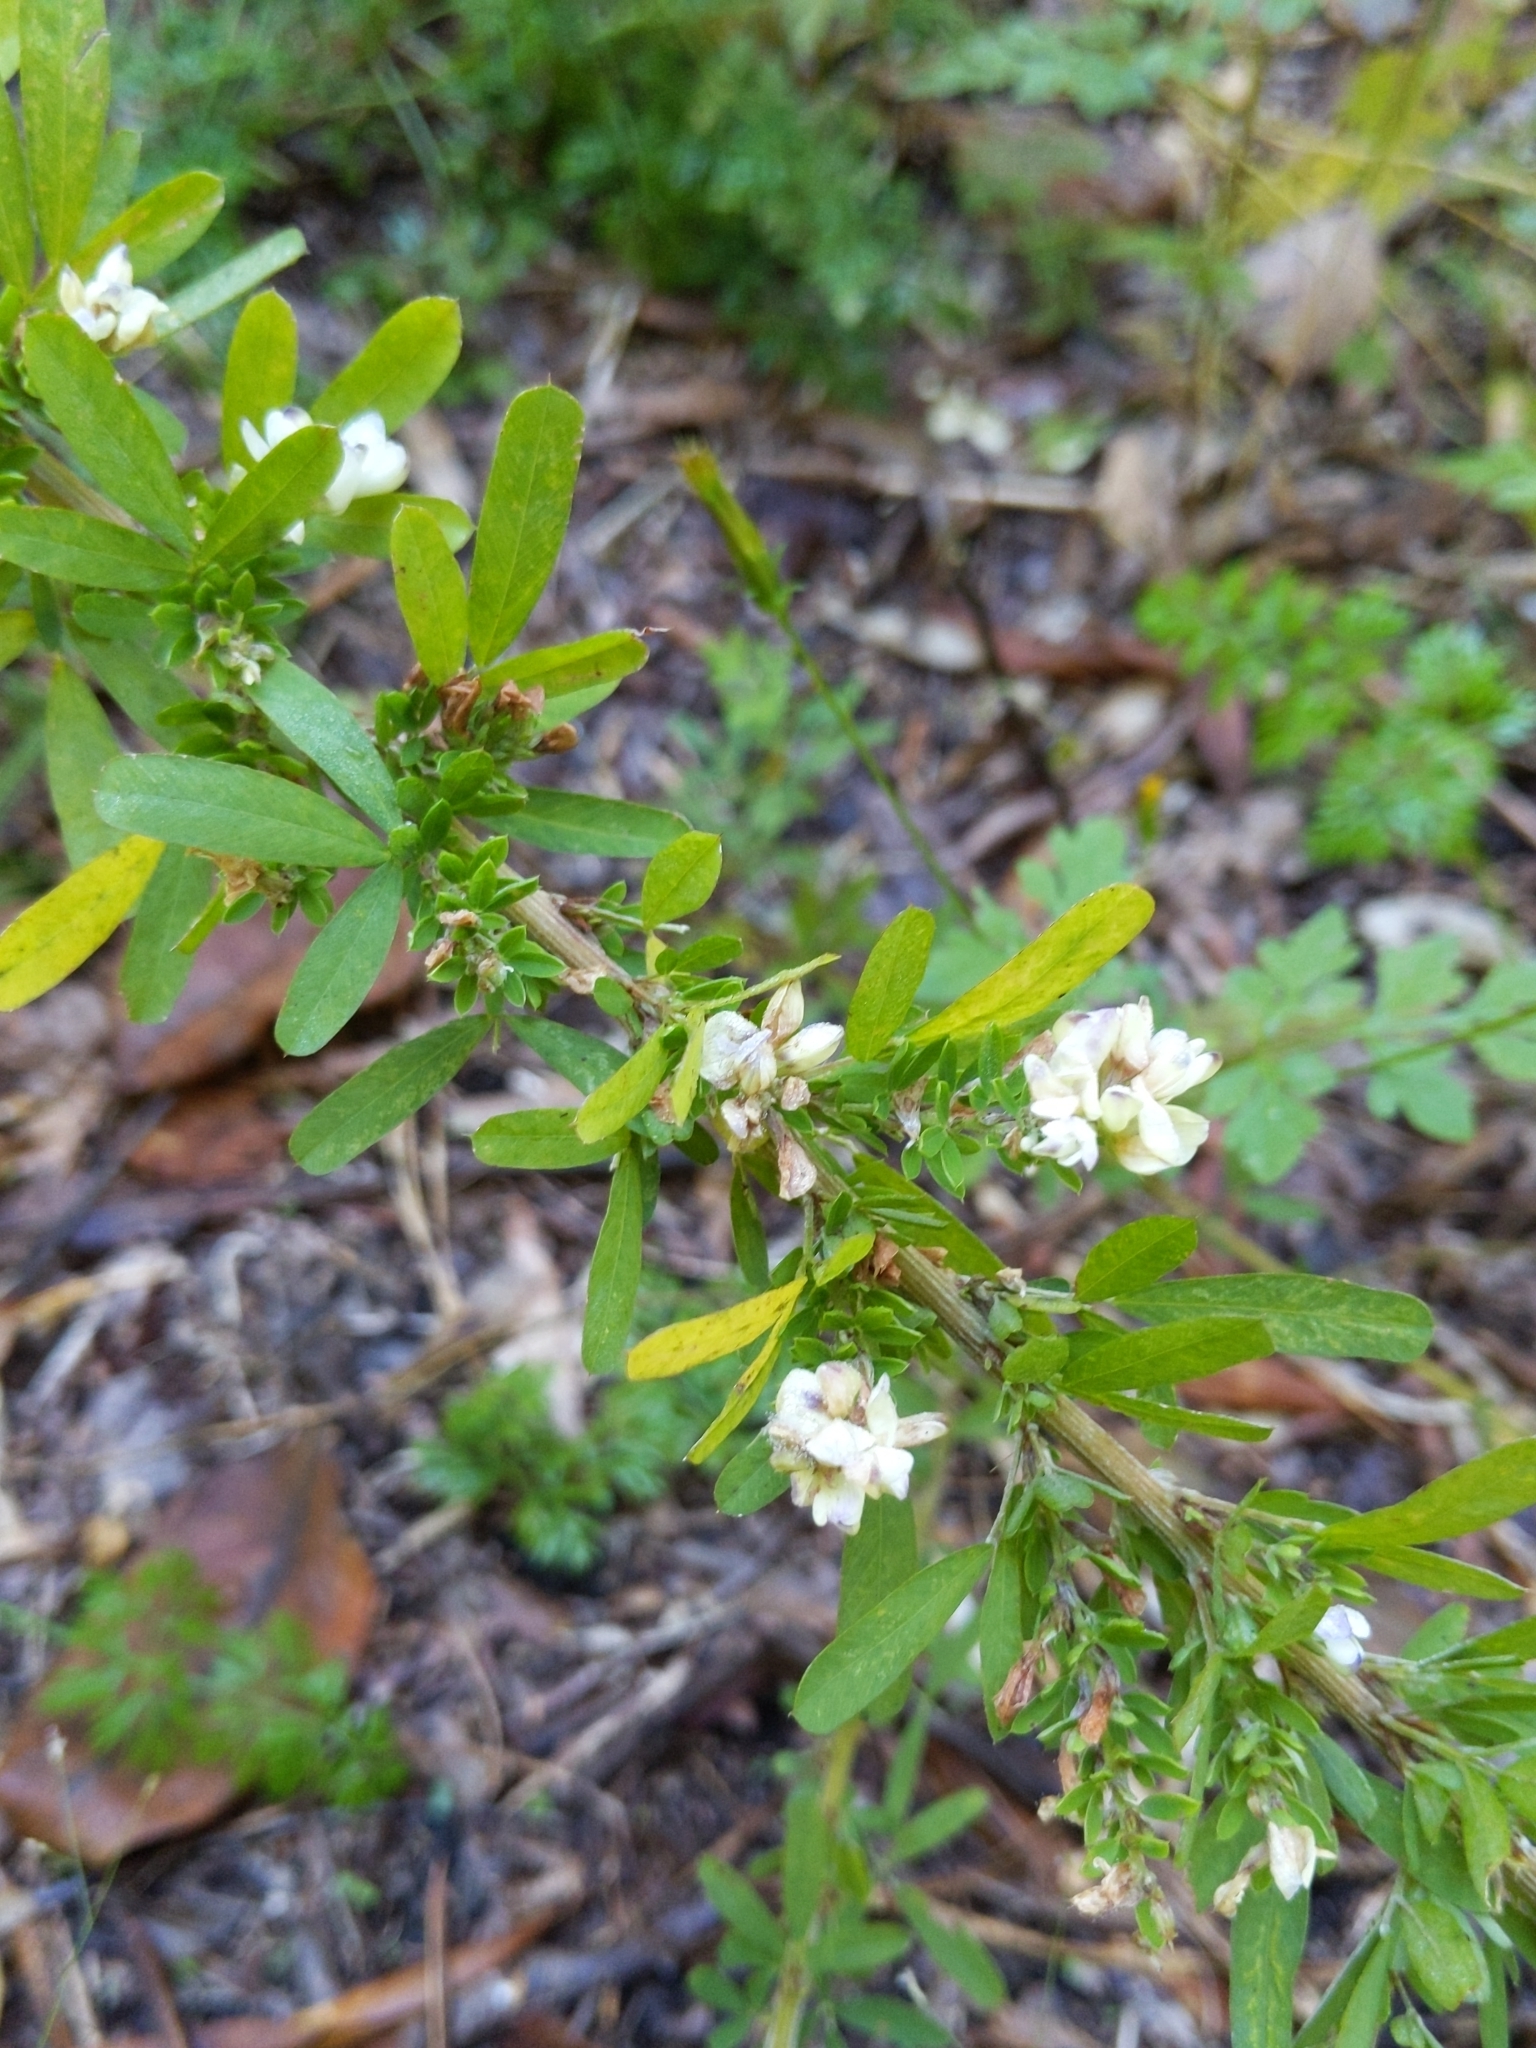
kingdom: Plantae
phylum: Tracheophyta
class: Magnoliopsida
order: Fabales
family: Fabaceae
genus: Lespedeza
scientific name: Lespedeza cuneata
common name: Chinese bush-clover
